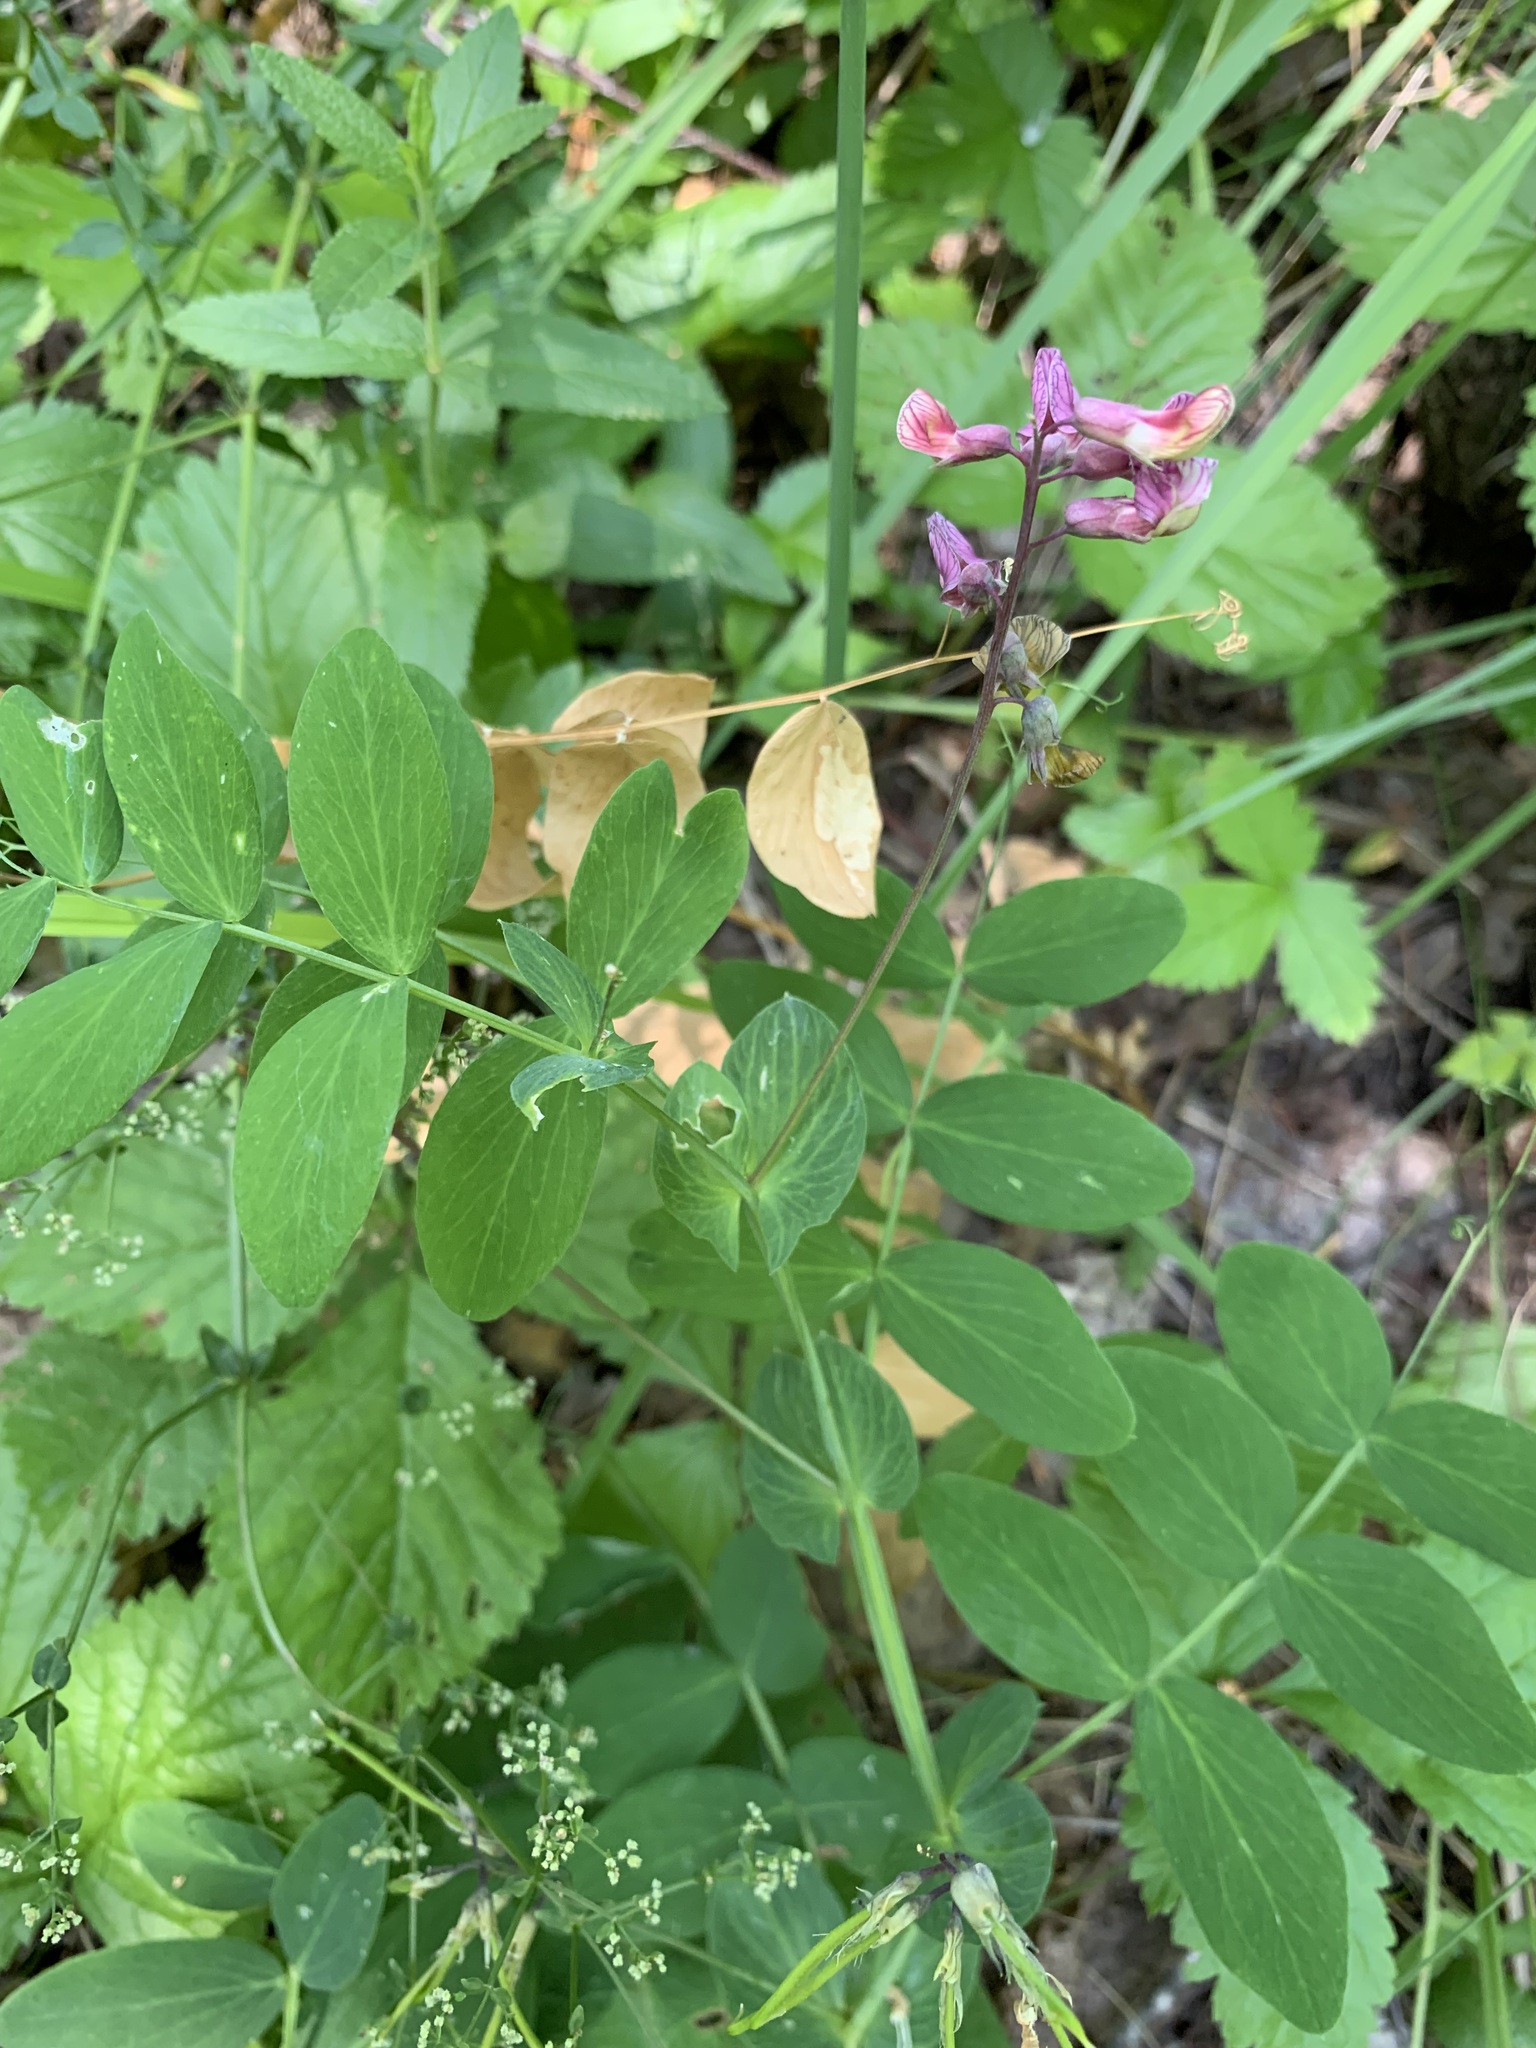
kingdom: Plantae
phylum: Tracheophyta
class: Magnoliopsida
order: Fabales
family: Fabaceae
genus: Lathyrus
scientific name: Lathyrus pisiformis
